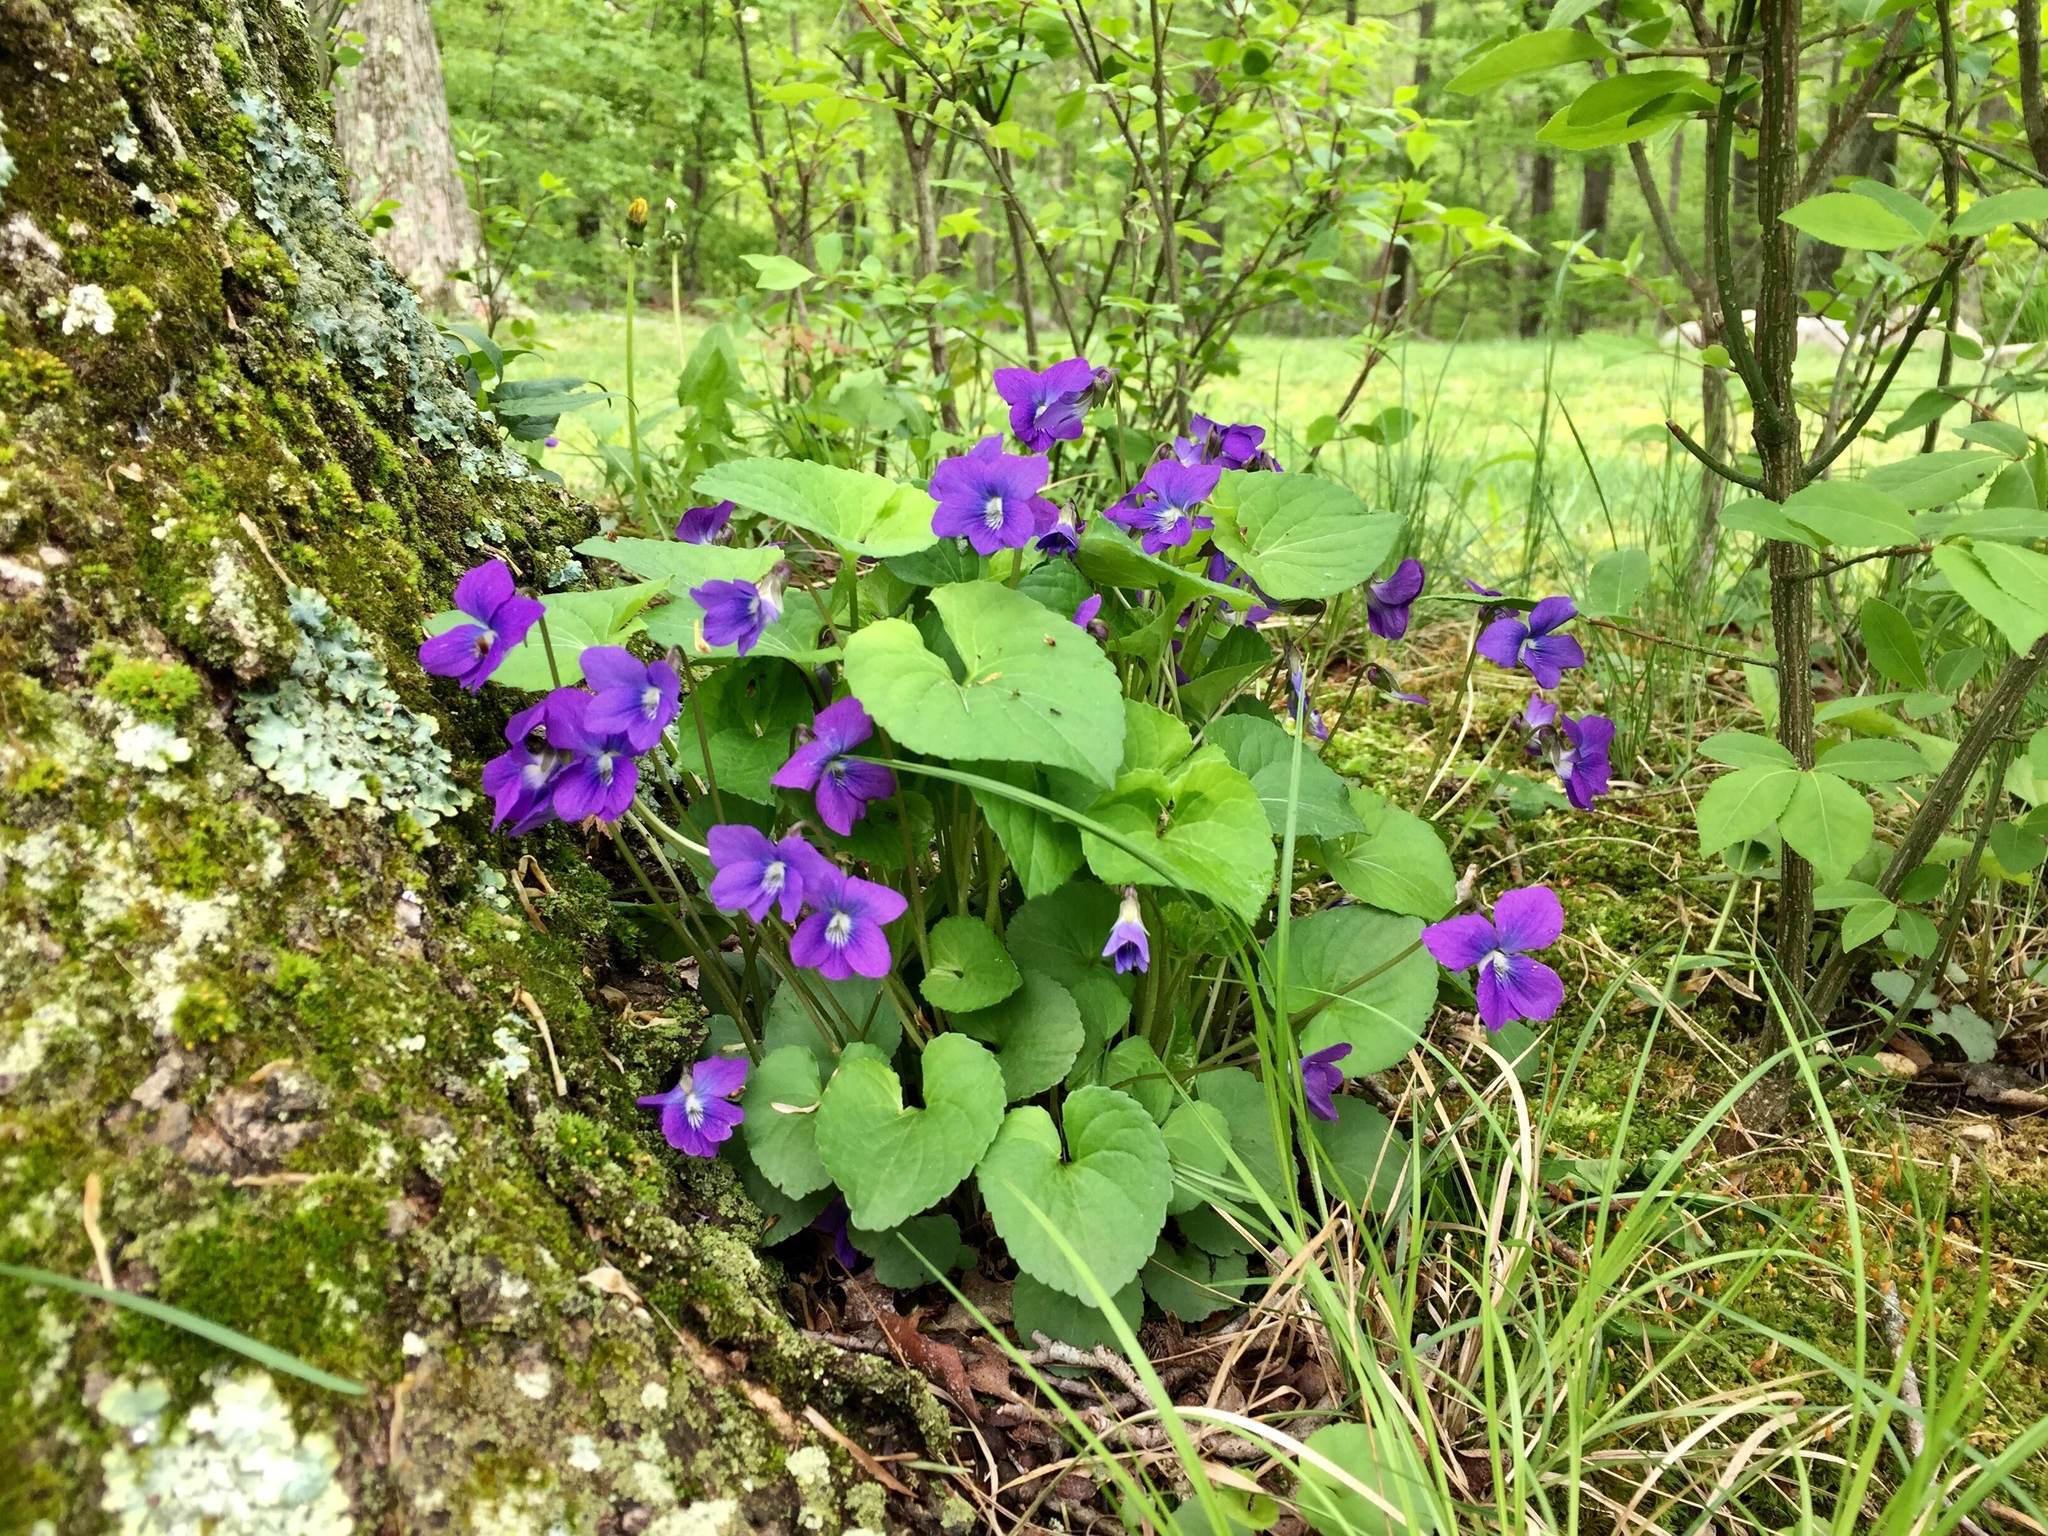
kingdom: Plantae
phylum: Tracheophyta
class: Magnoliopsida
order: Malpighiales
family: Violaceae
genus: Viola
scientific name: Viola sororia
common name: Dooryard violet
